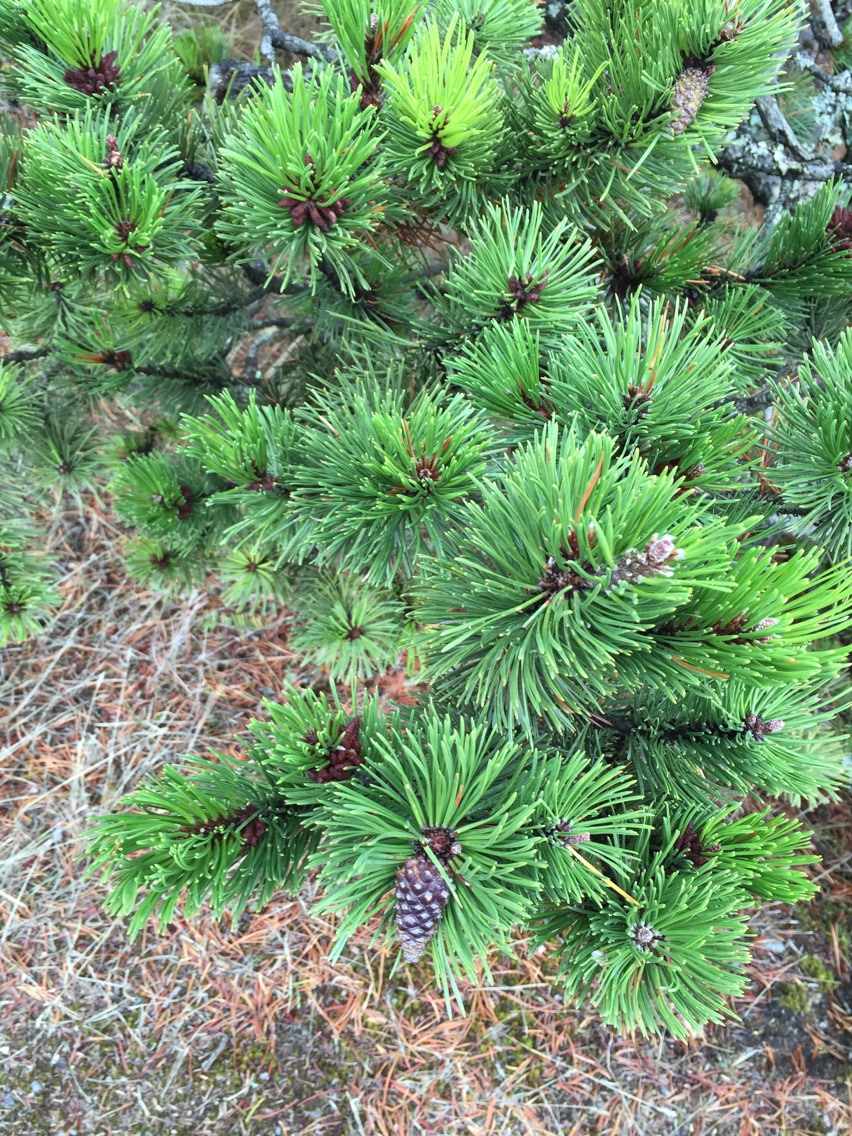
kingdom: Plantae
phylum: Tracheophyta
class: Pinopsida
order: Pinales
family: Pinaceae
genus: Pinus
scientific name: Pinus contorta
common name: Lodgepole pine
